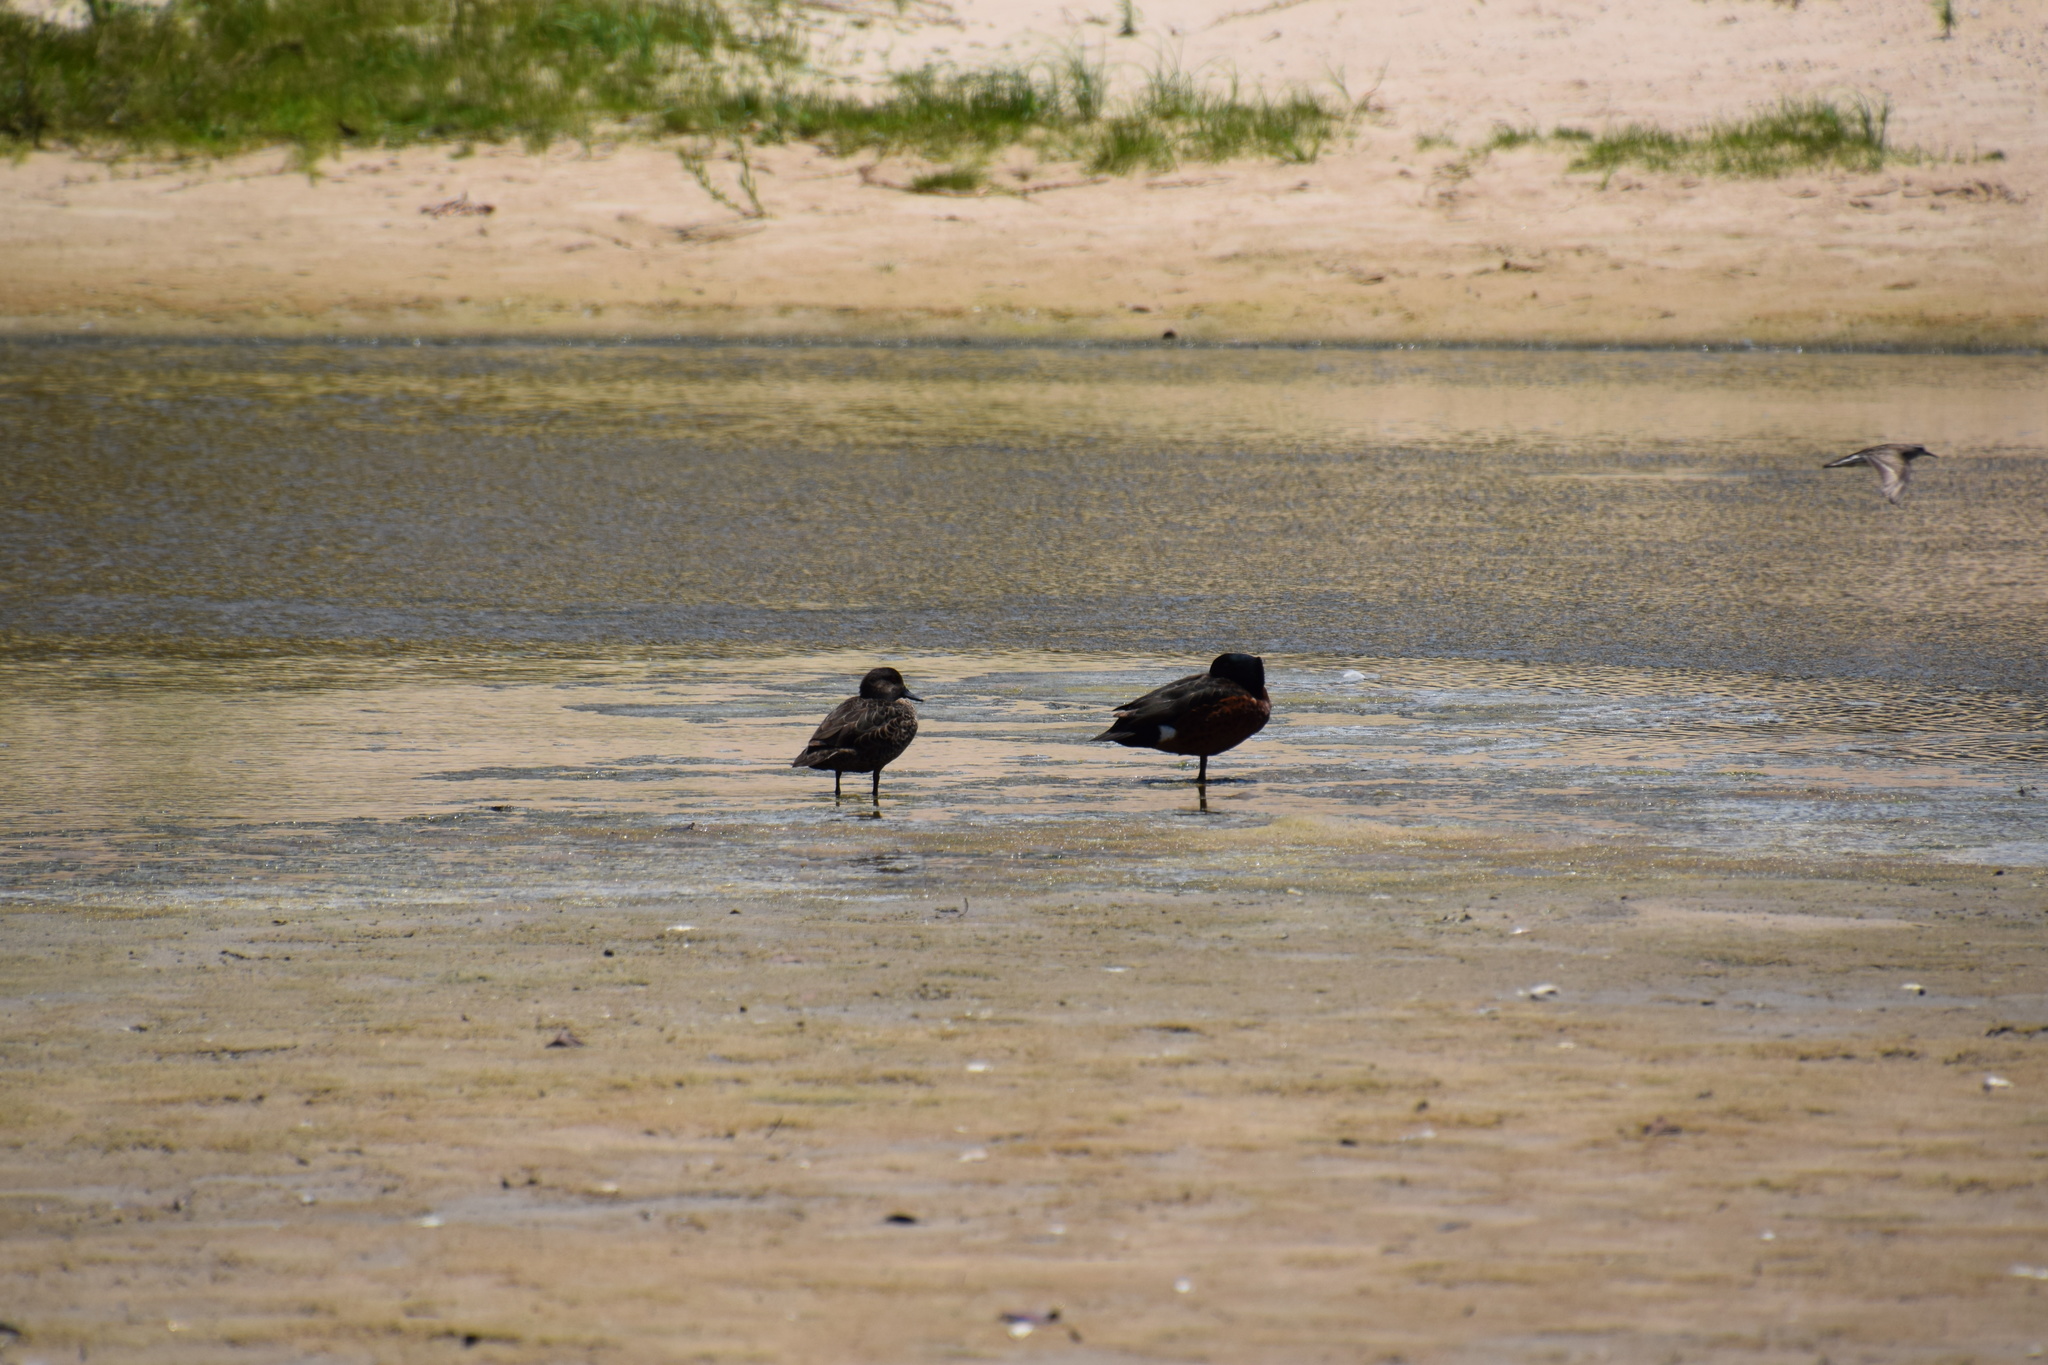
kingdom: Animalia
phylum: Chordata
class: Aves
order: Anseriformes
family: Anatidae
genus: Anas
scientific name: Anas castanea
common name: Chestnut teal
